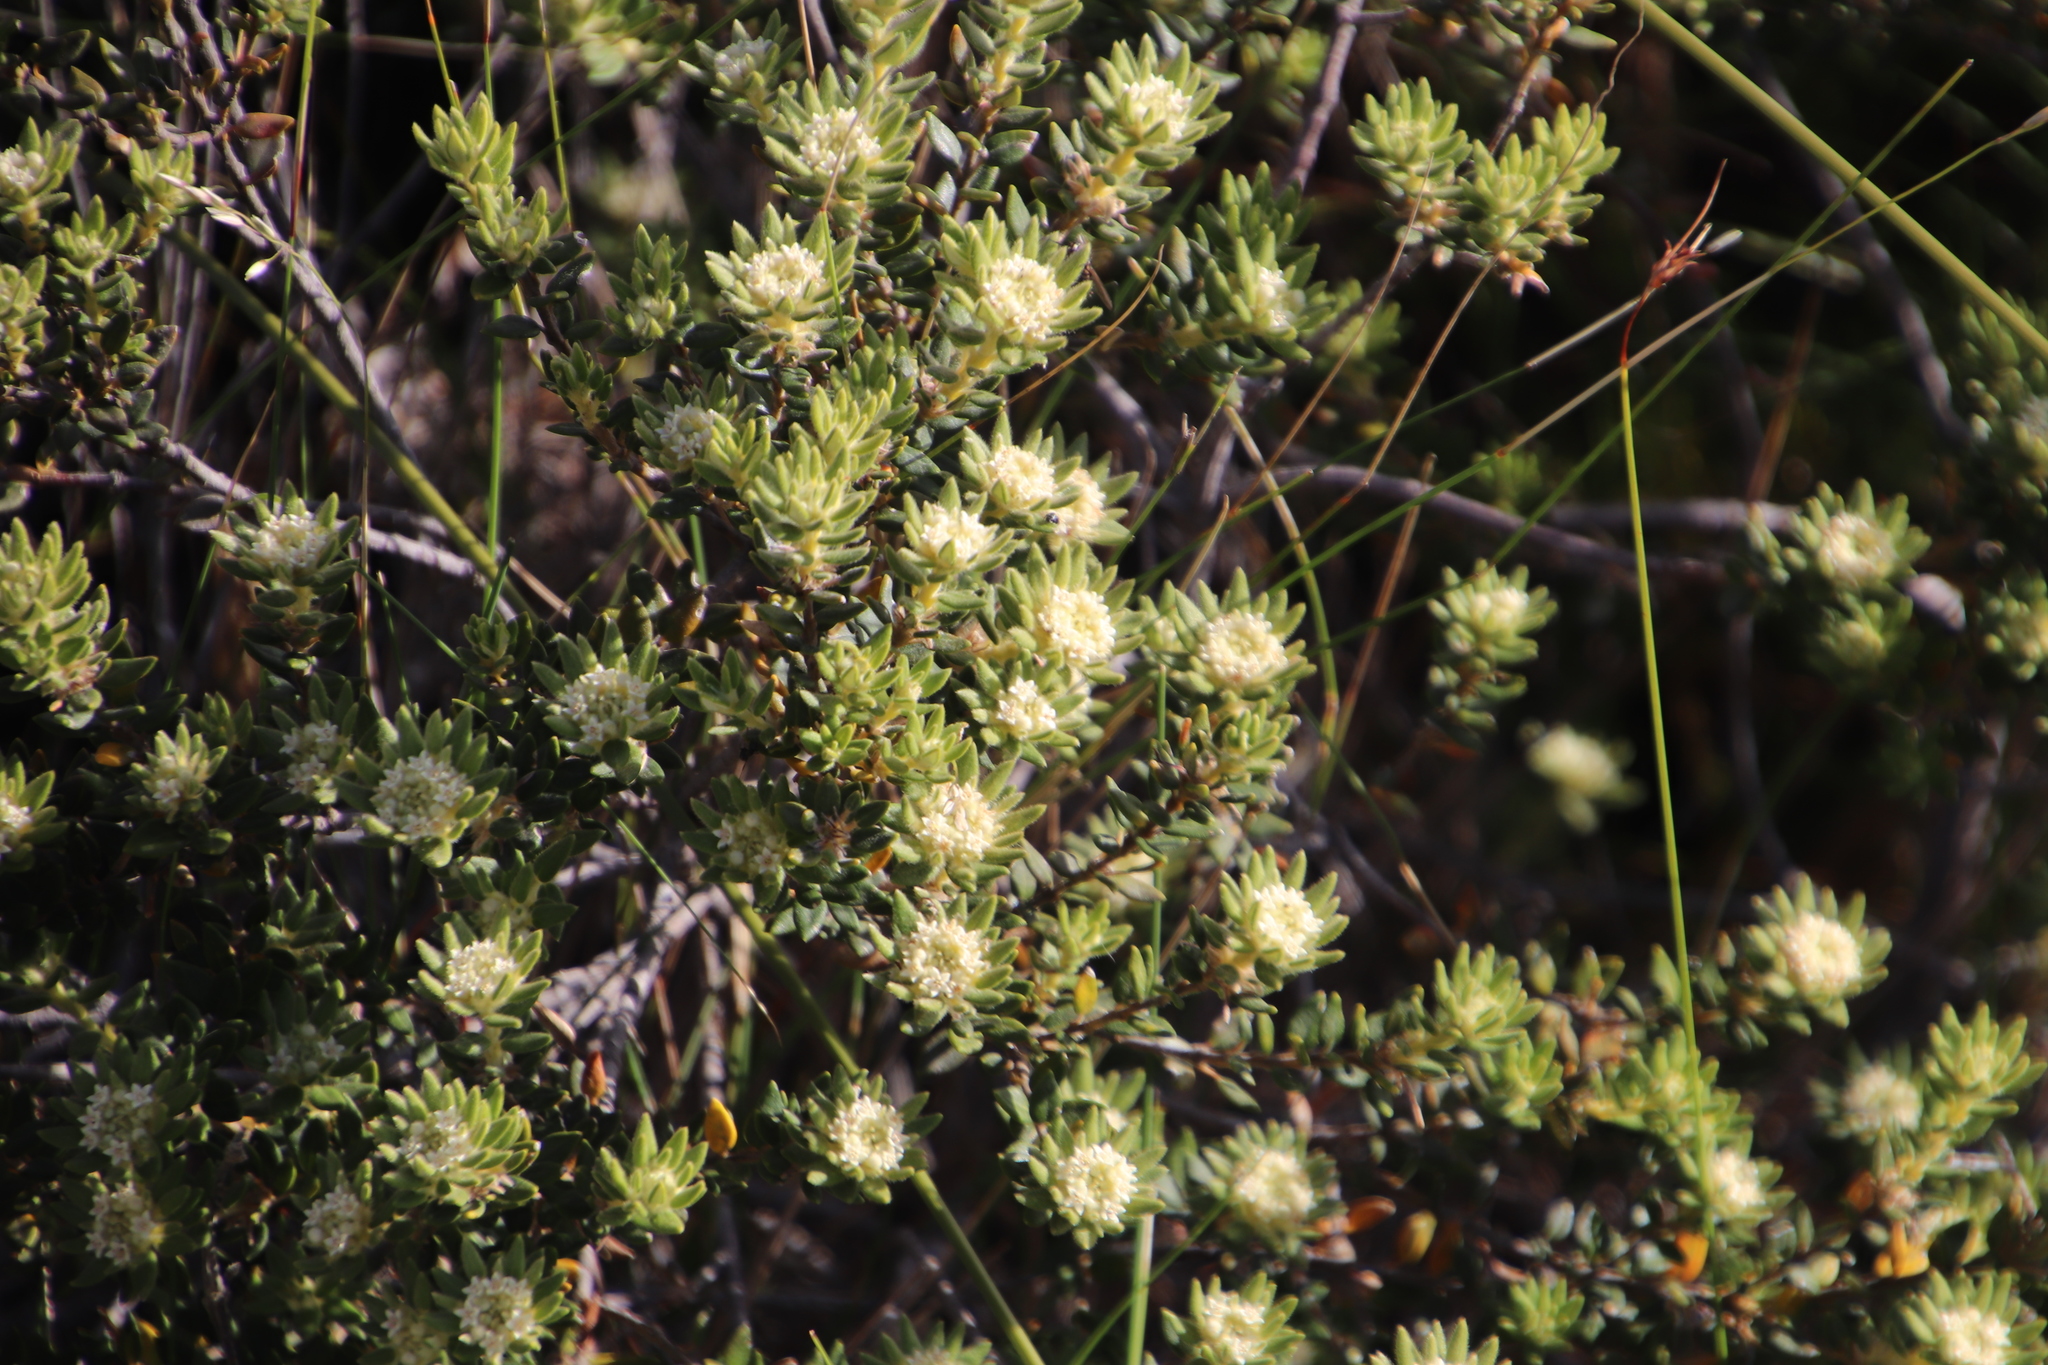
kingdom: Plantae
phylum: Tracheophyta
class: Magnoliopsida
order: Rosales
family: Rhamnaceae
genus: Phylica
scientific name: Phylica dioica
